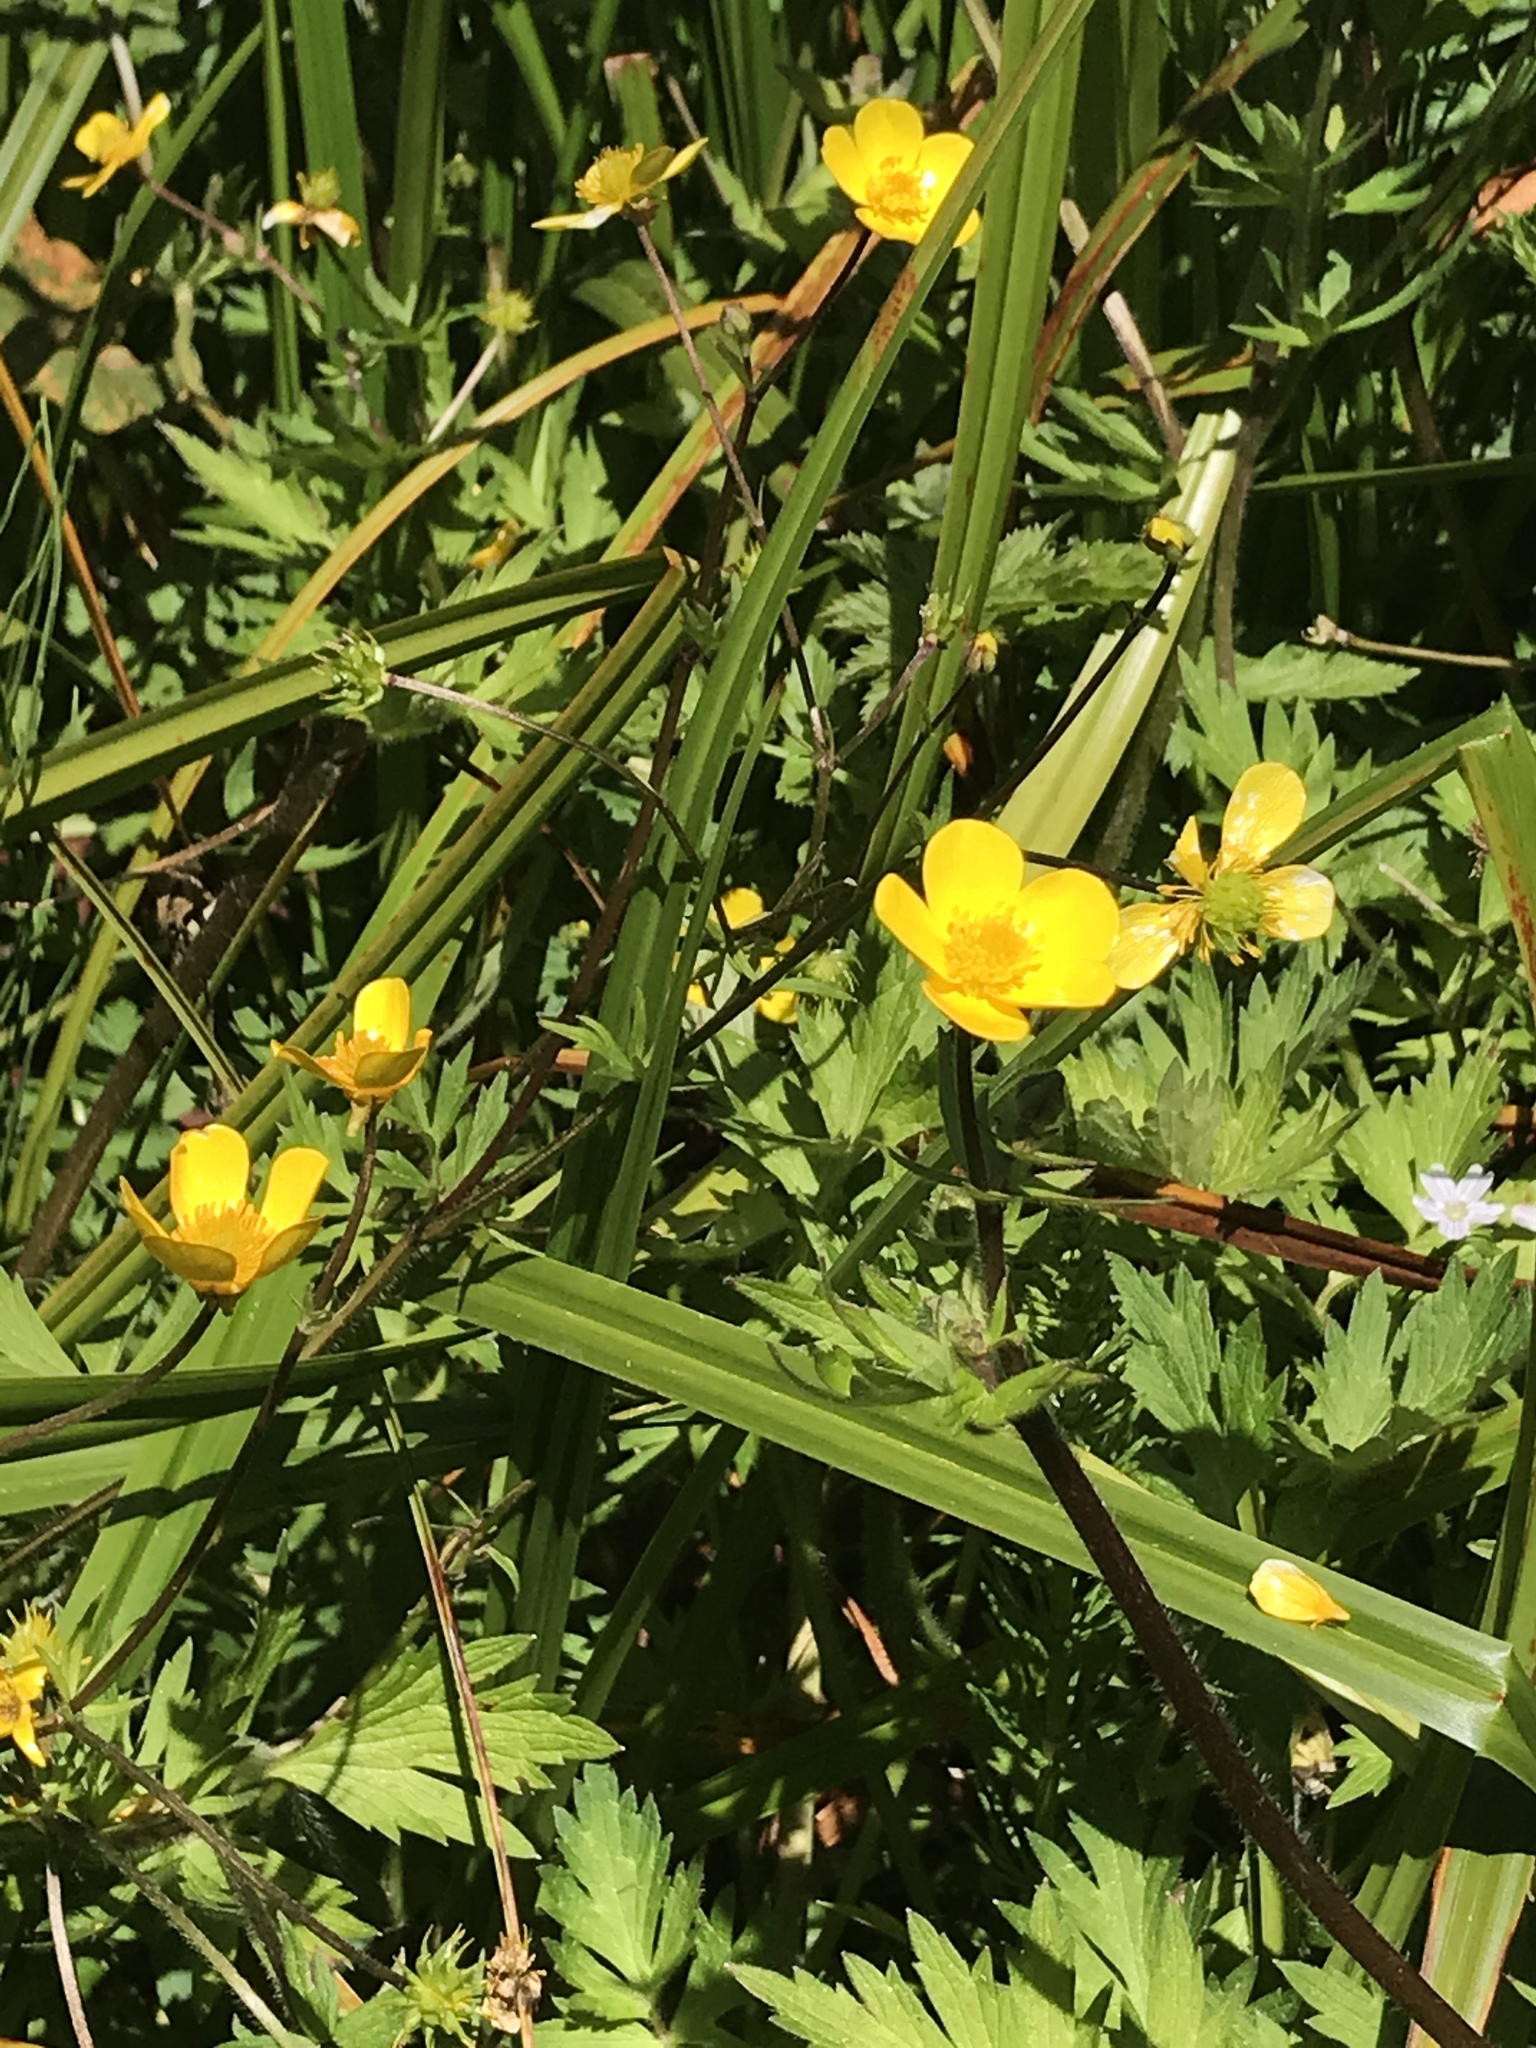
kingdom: Plantae
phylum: Tracheophyta
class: Magnoliopsida
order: Ranunculales
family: Ranunculaceae
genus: Ranunculus
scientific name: Ranunculus orthorhynchus
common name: Straight-beak buttercup
